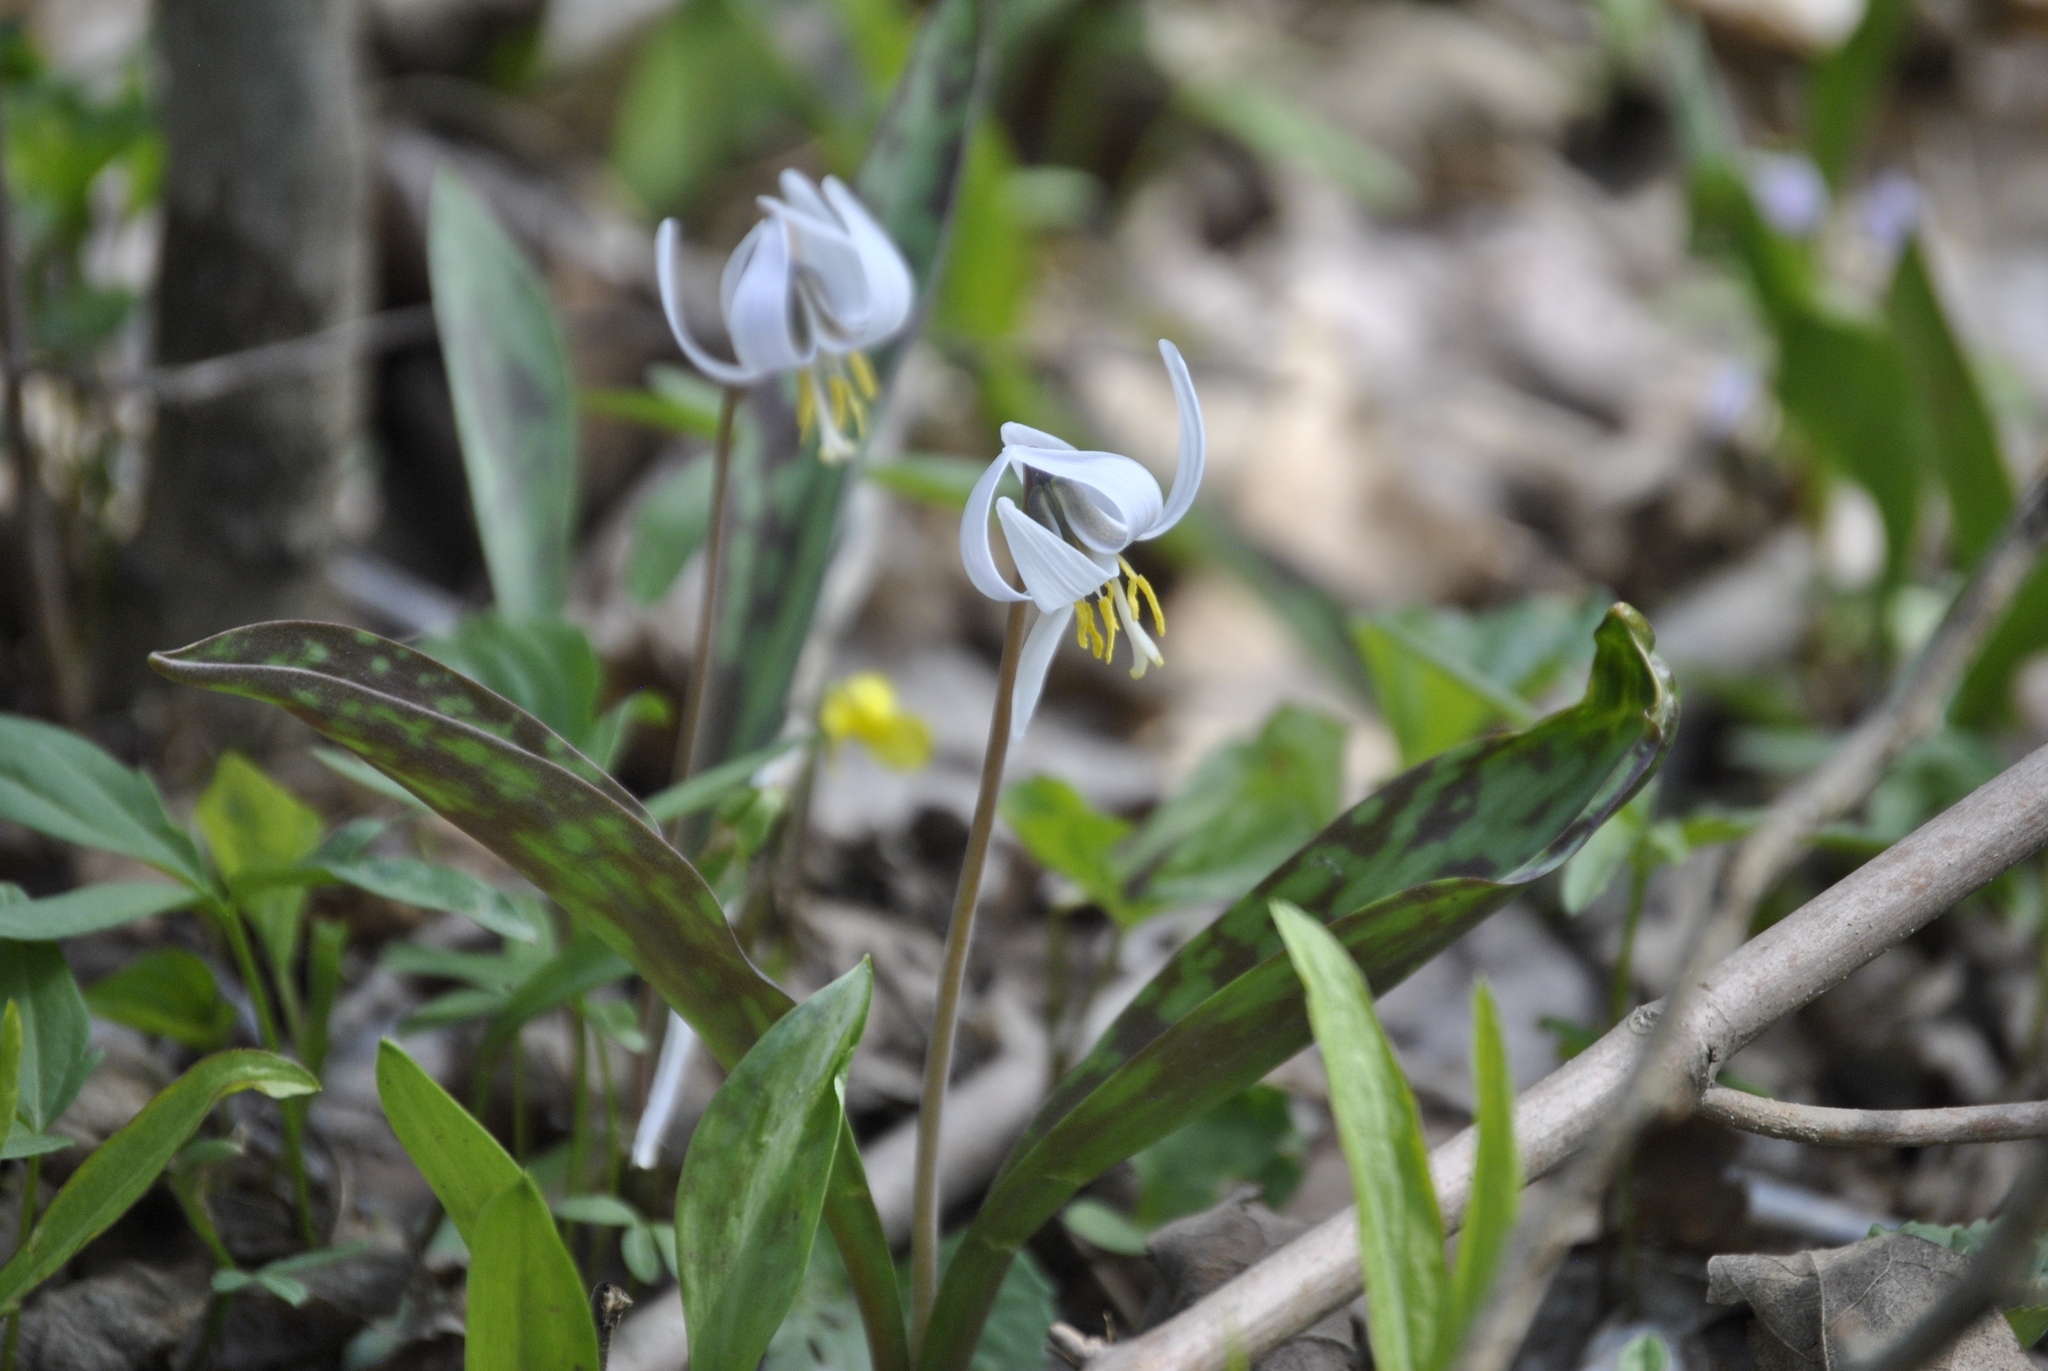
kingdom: Plantae
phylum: Tracheophyta
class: Liliopsida
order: Liliales
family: Liliaceae
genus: Erythronium
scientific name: Erythronium albidum
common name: White trout-lily
